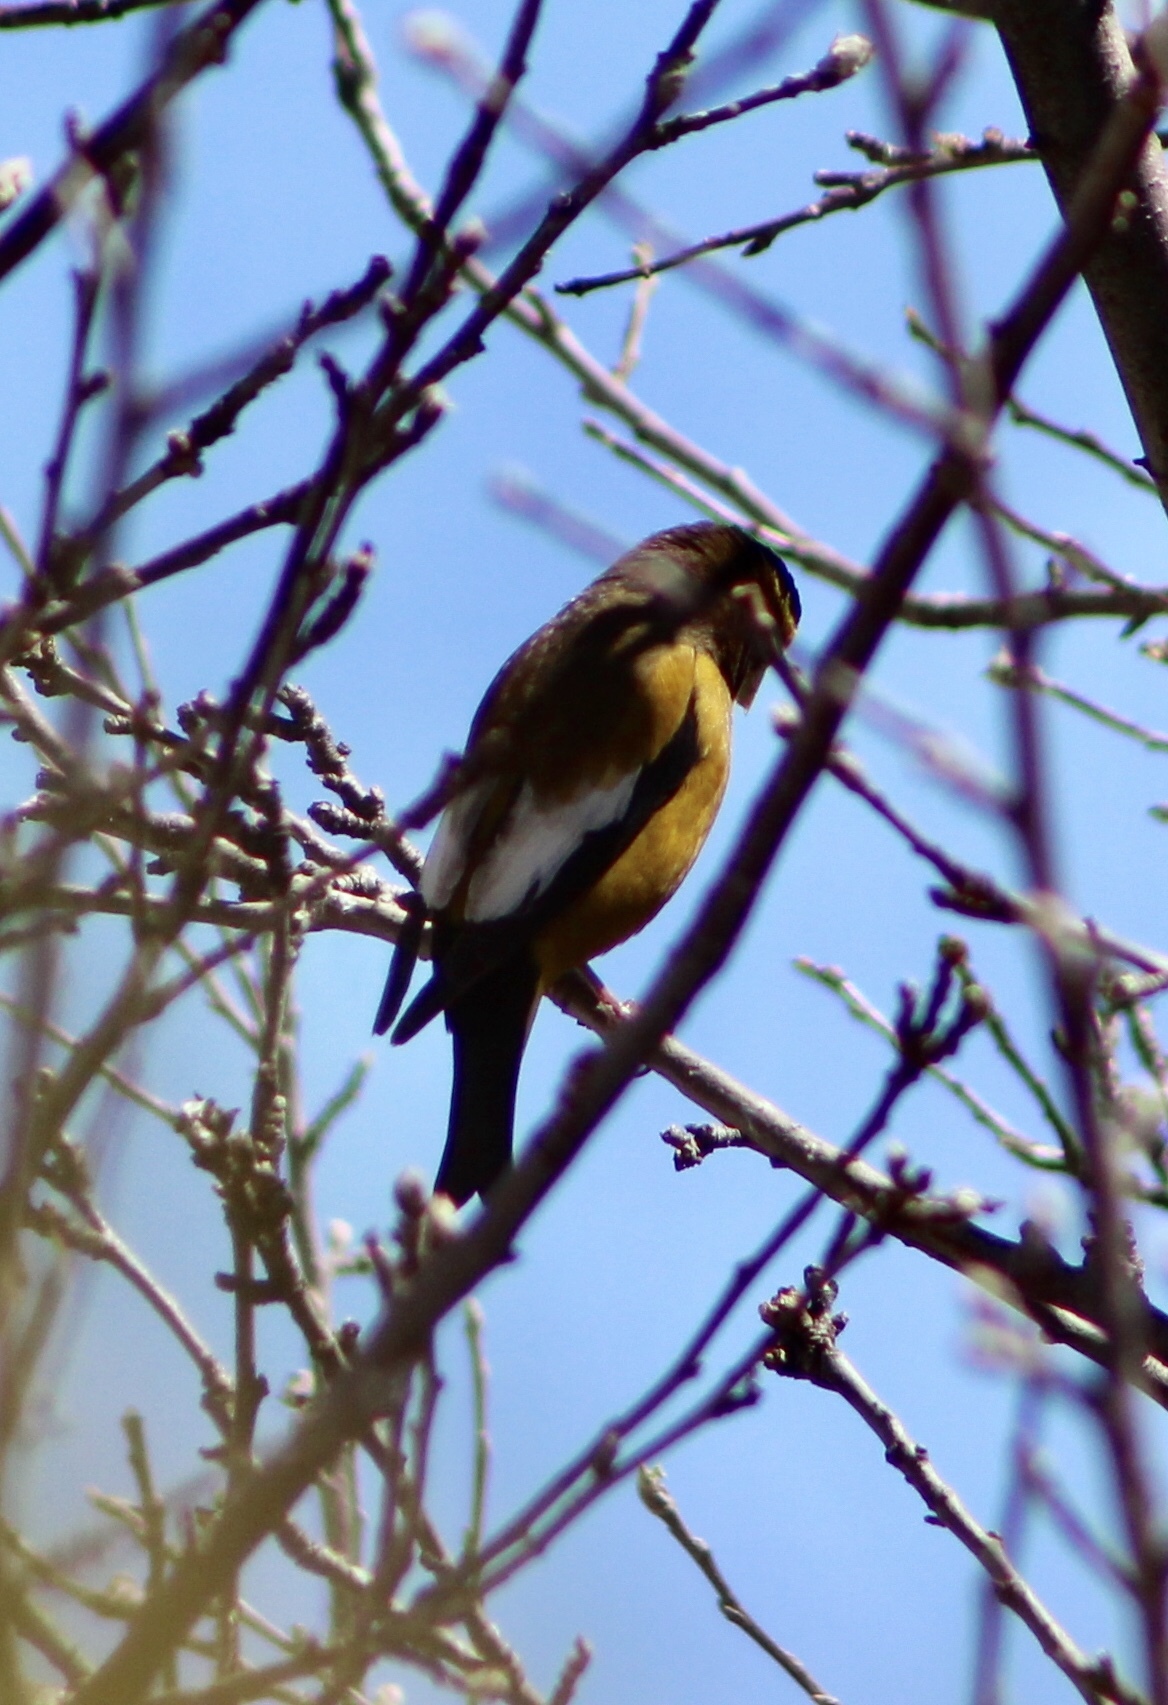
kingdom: Animalia
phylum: Chordata
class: Aves
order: Passeriformes
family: Fringillidae
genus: Hesperiphona
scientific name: Hesperiphona vespertina
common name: Evening grosbeak
